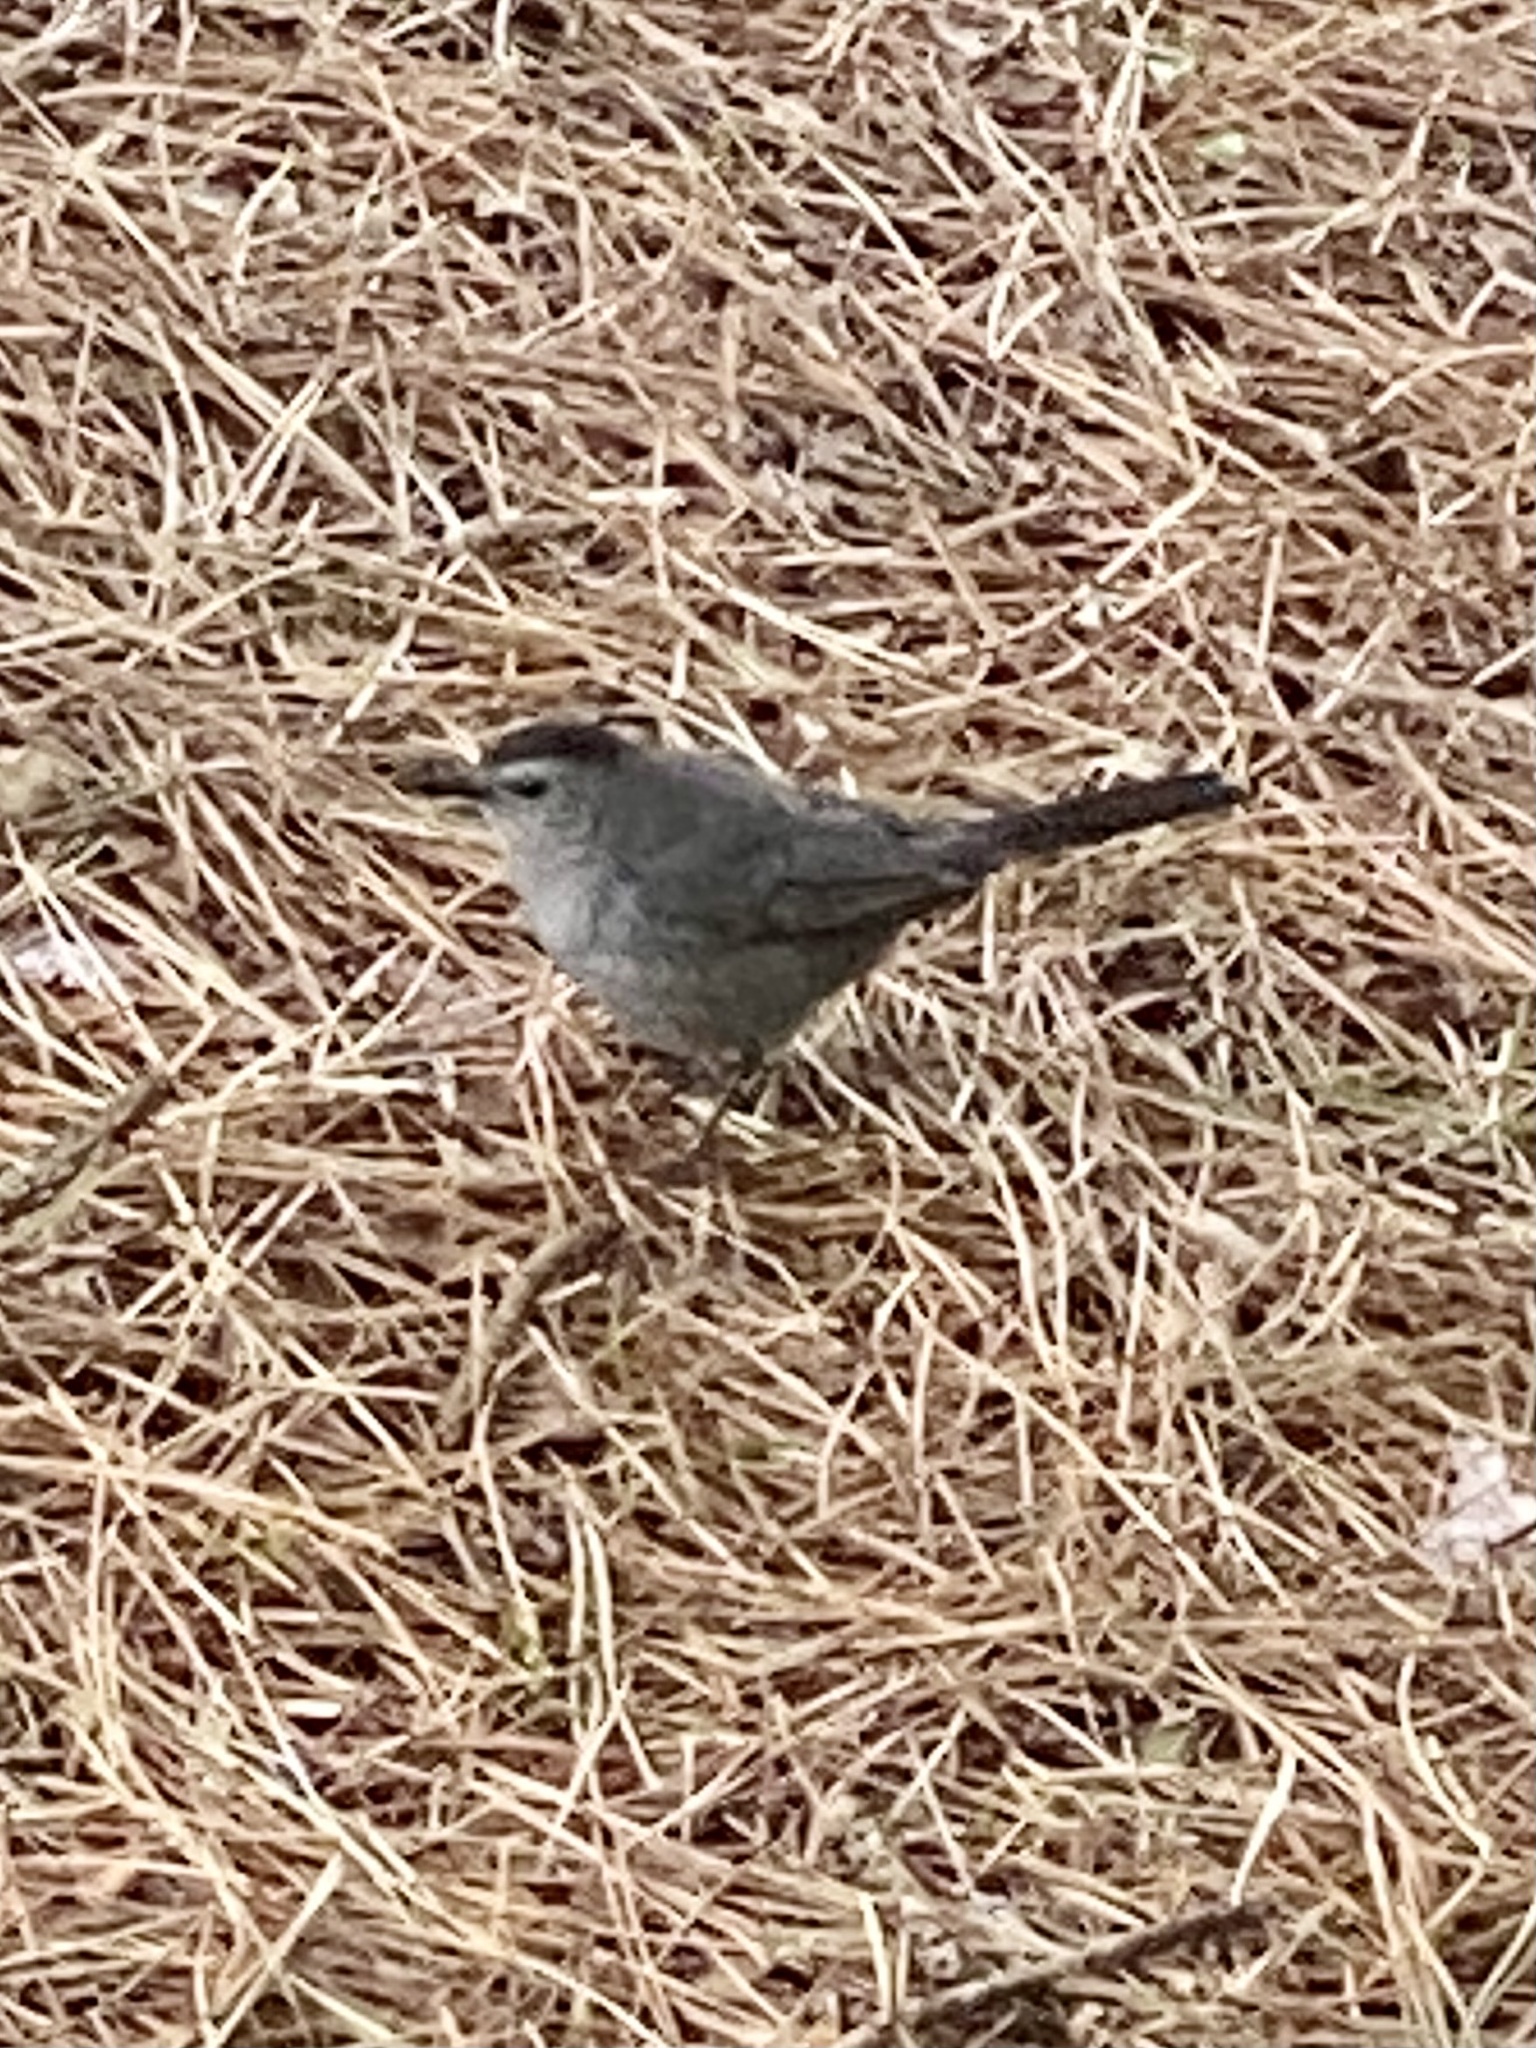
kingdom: Animalia
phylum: Chordata
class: Aves
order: Passeriformes
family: Mimidae
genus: Dumetella
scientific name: Dumetella carolinensis
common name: Gray catbird
